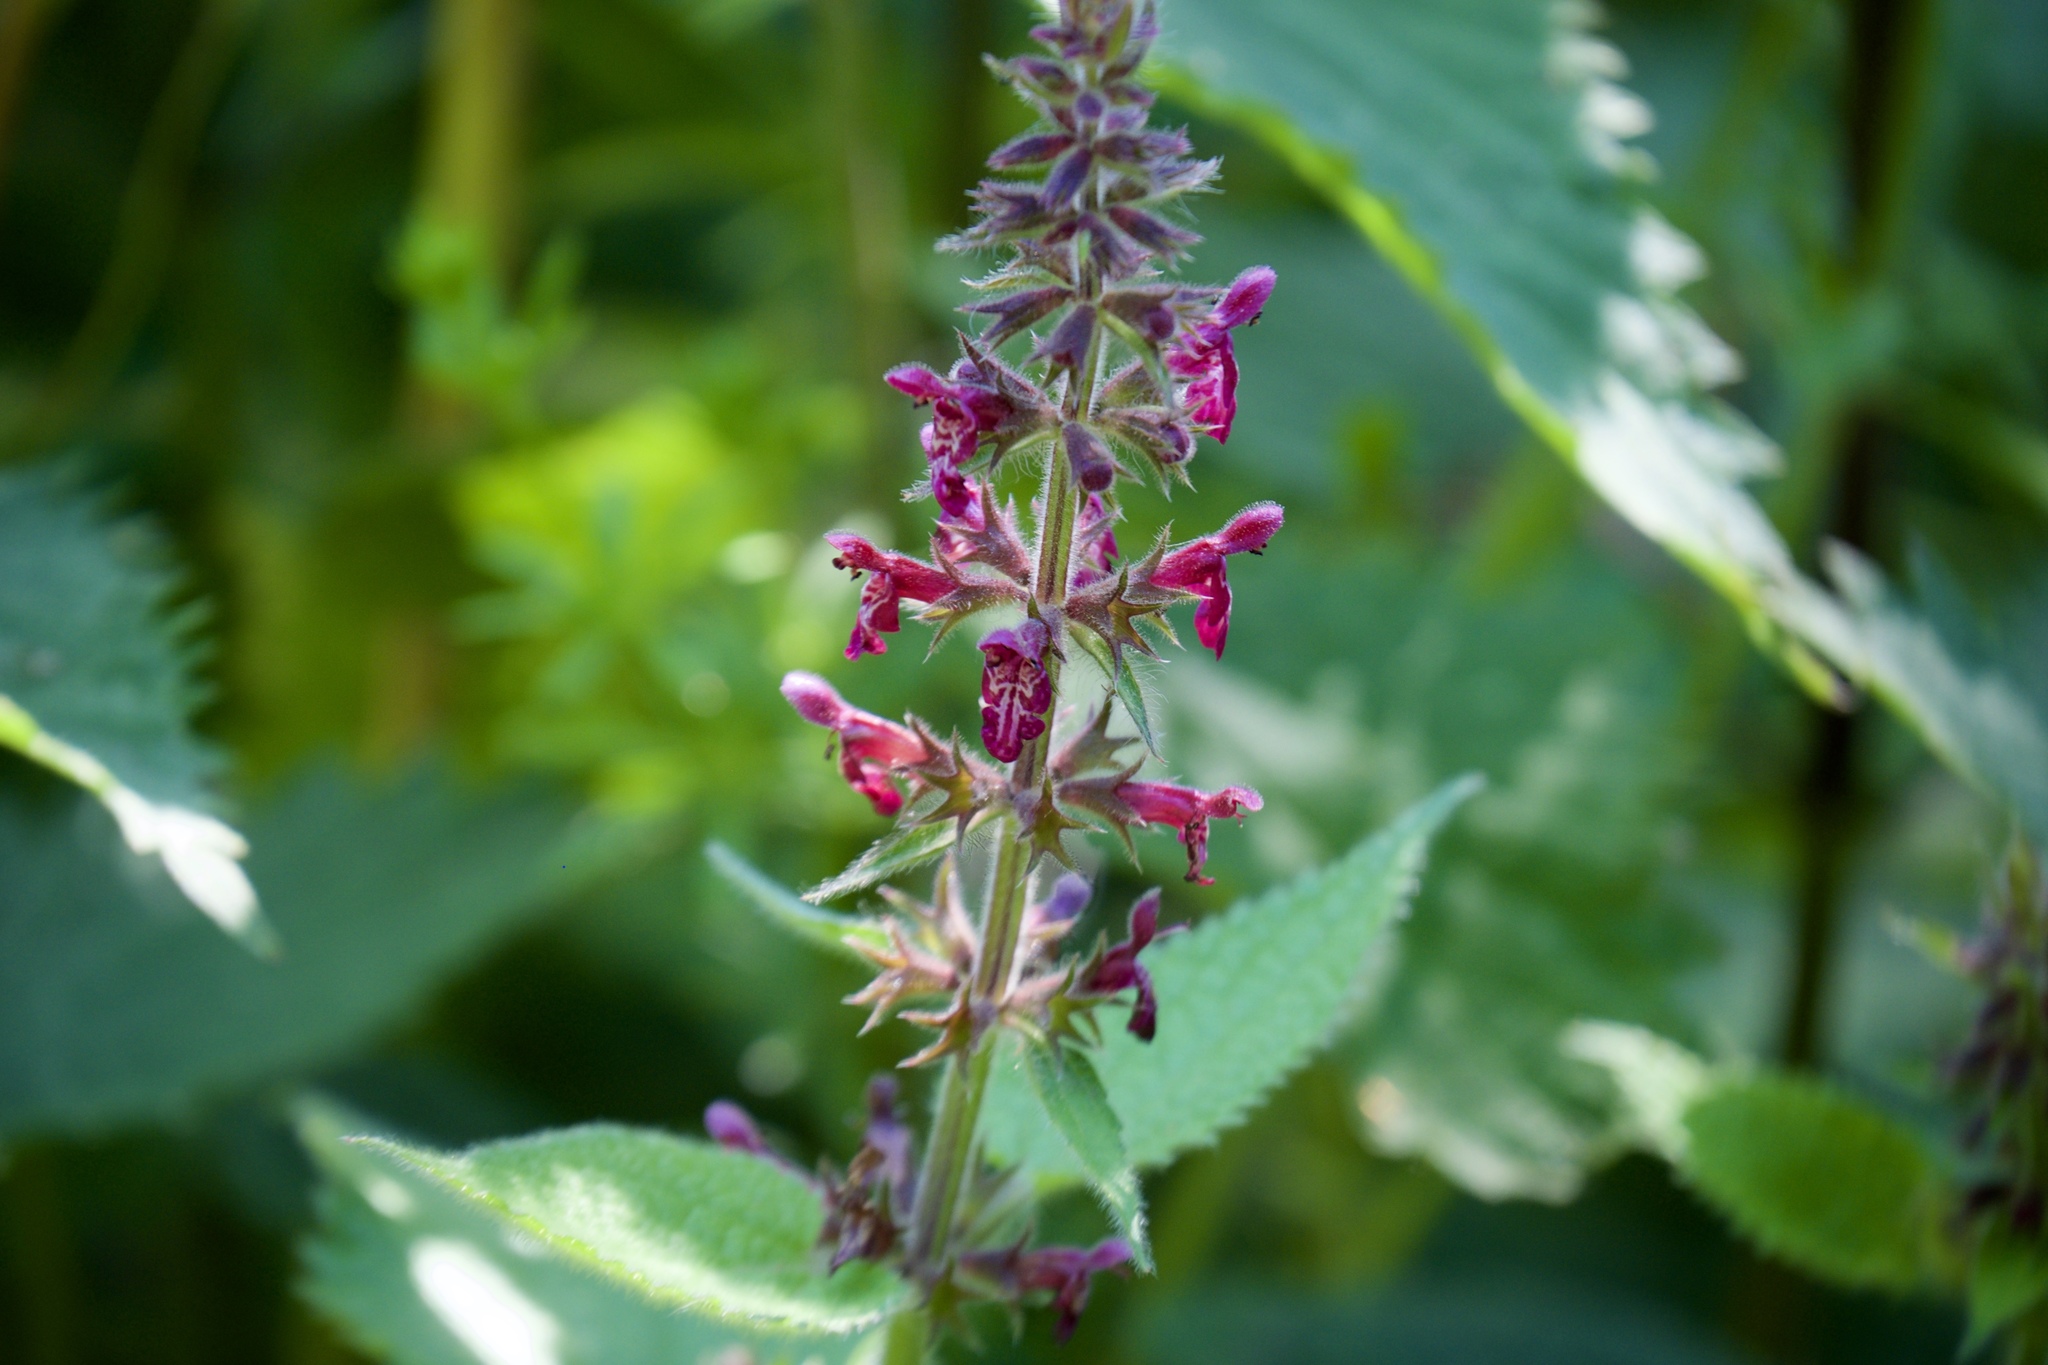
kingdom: Plantae
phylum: Tracheophyta
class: Magnoliopsida
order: Lamiales
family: Lamiaceae
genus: Stachys
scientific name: Stachys sylvatica
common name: Hedge woundwort
